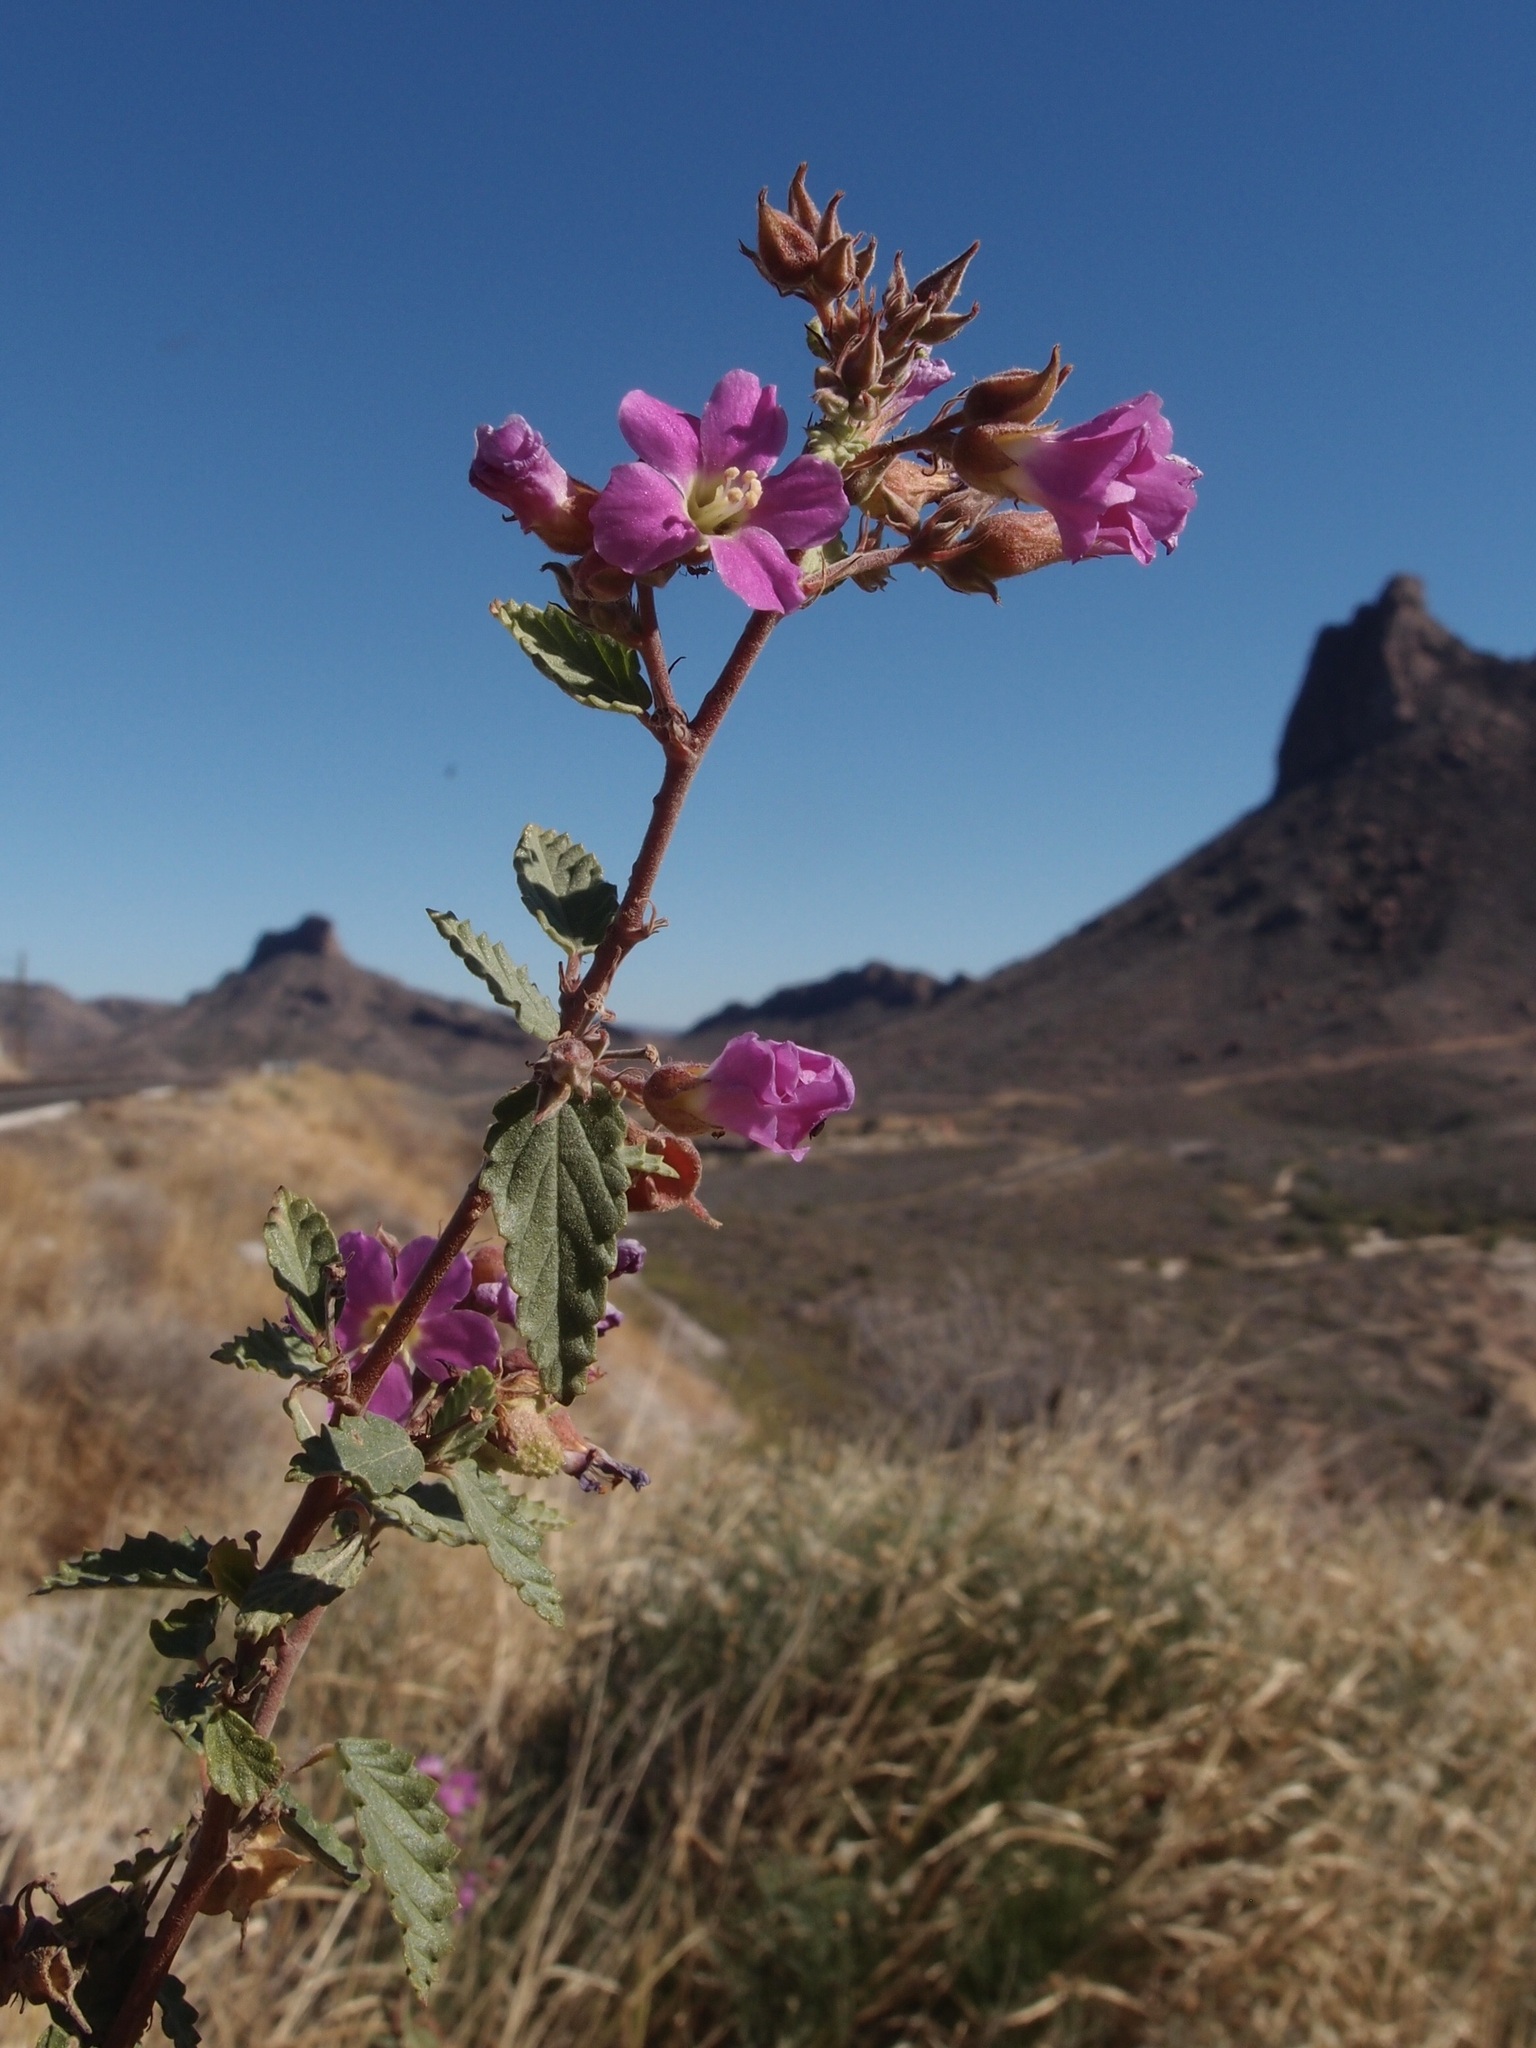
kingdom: Plantae
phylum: Tracheophyta
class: Magnoliopsida
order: Malvales
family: Malvaceae
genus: Melochia
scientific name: Melochia tomentosa
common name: Black torch
